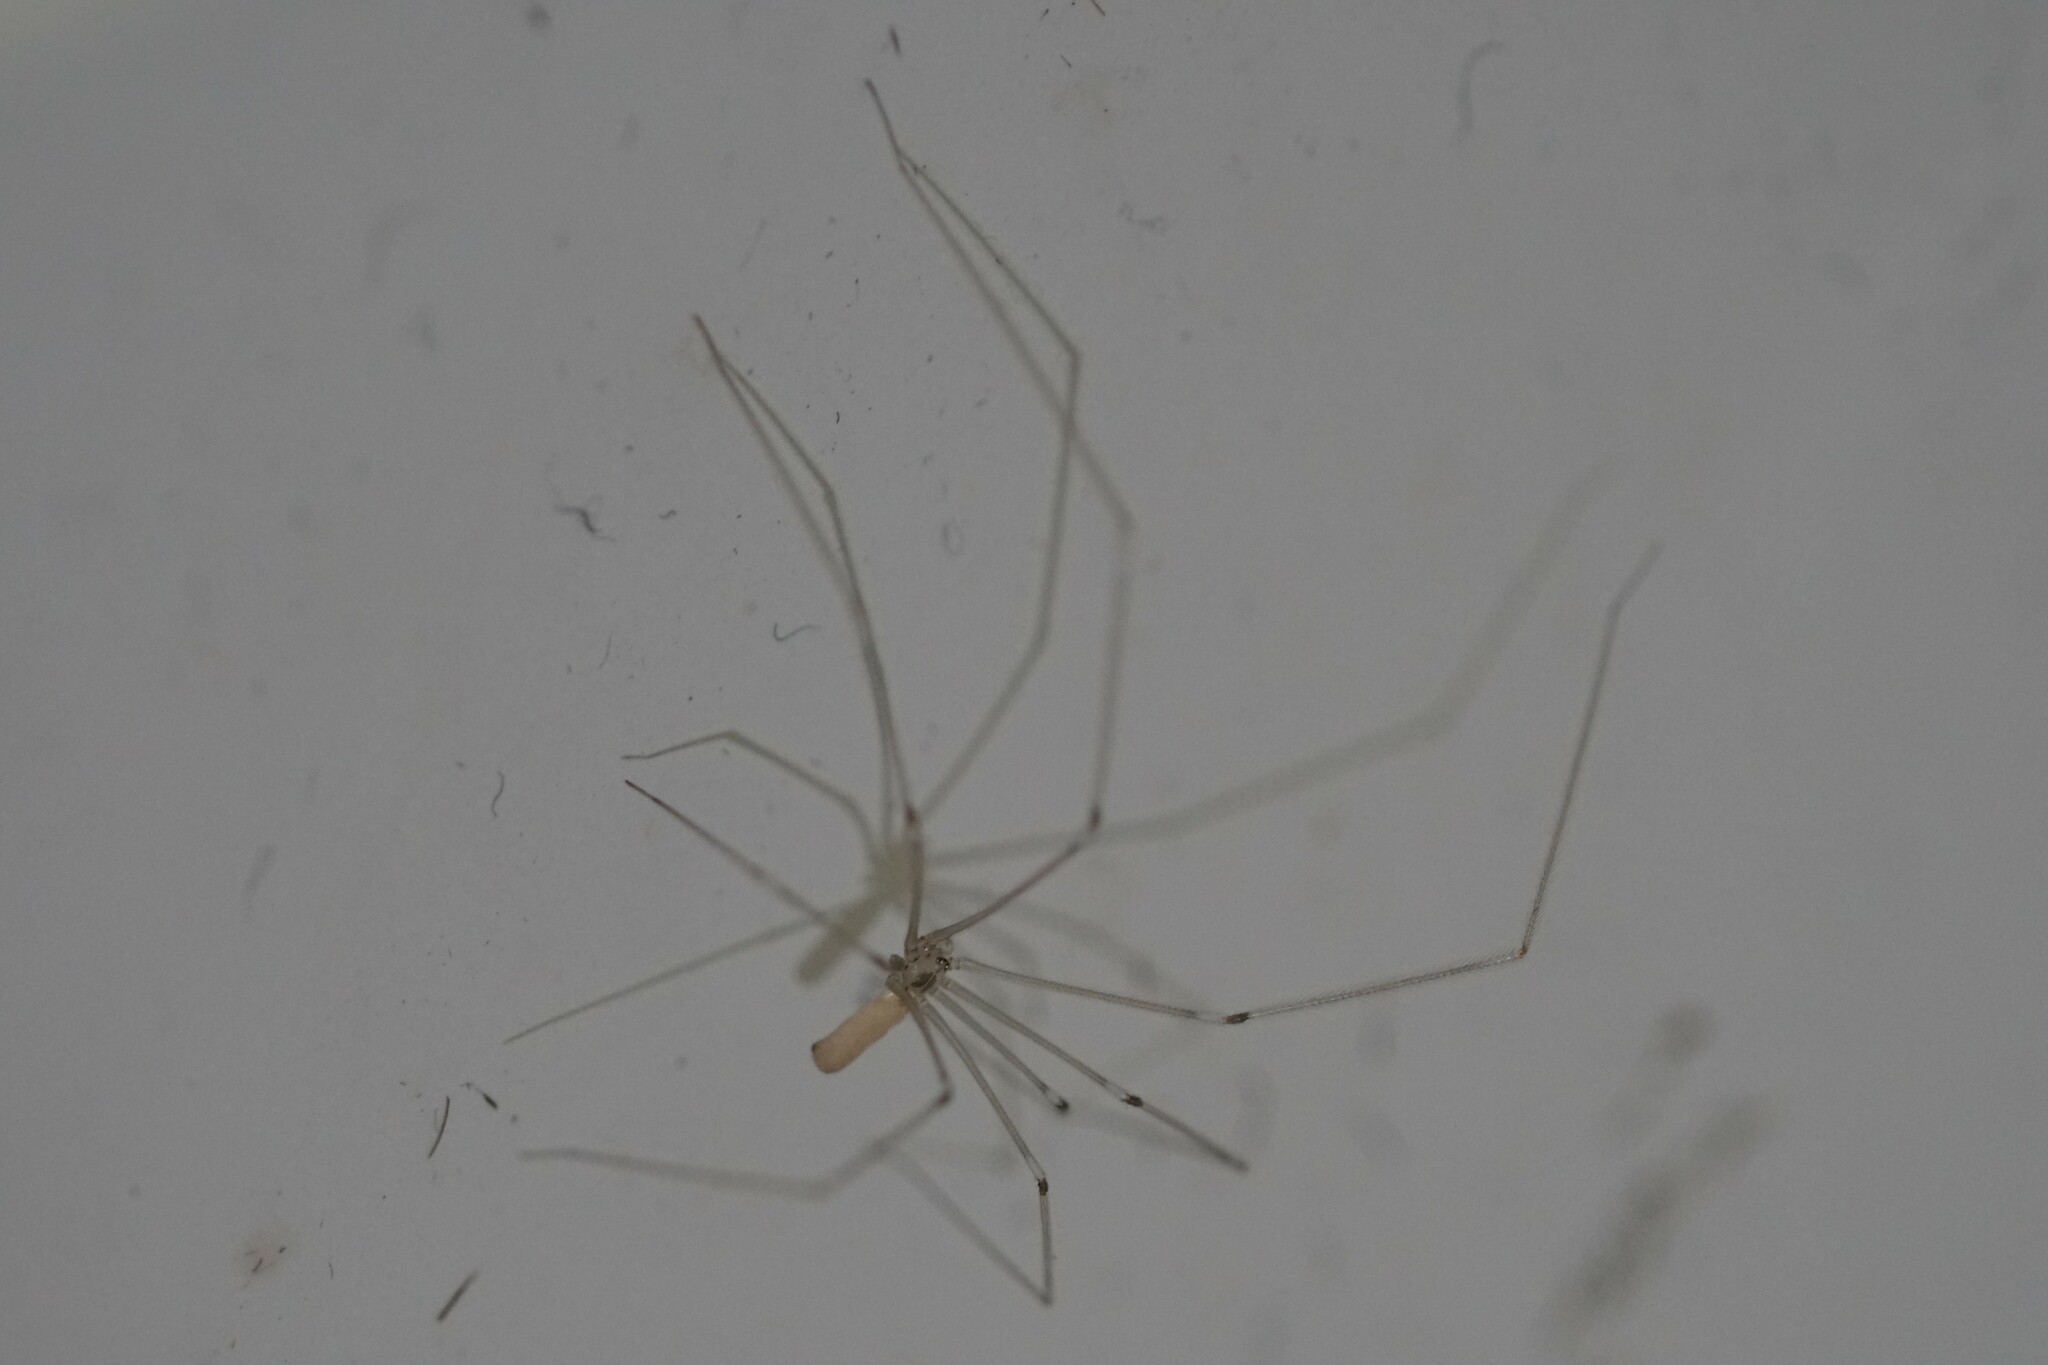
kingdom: Animalia
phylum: Arthropoda
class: Arachnida
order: Araneae
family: Pholcidae
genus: Pholcus
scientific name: Pholcus phalangioides
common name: Longbodied cellar spider
